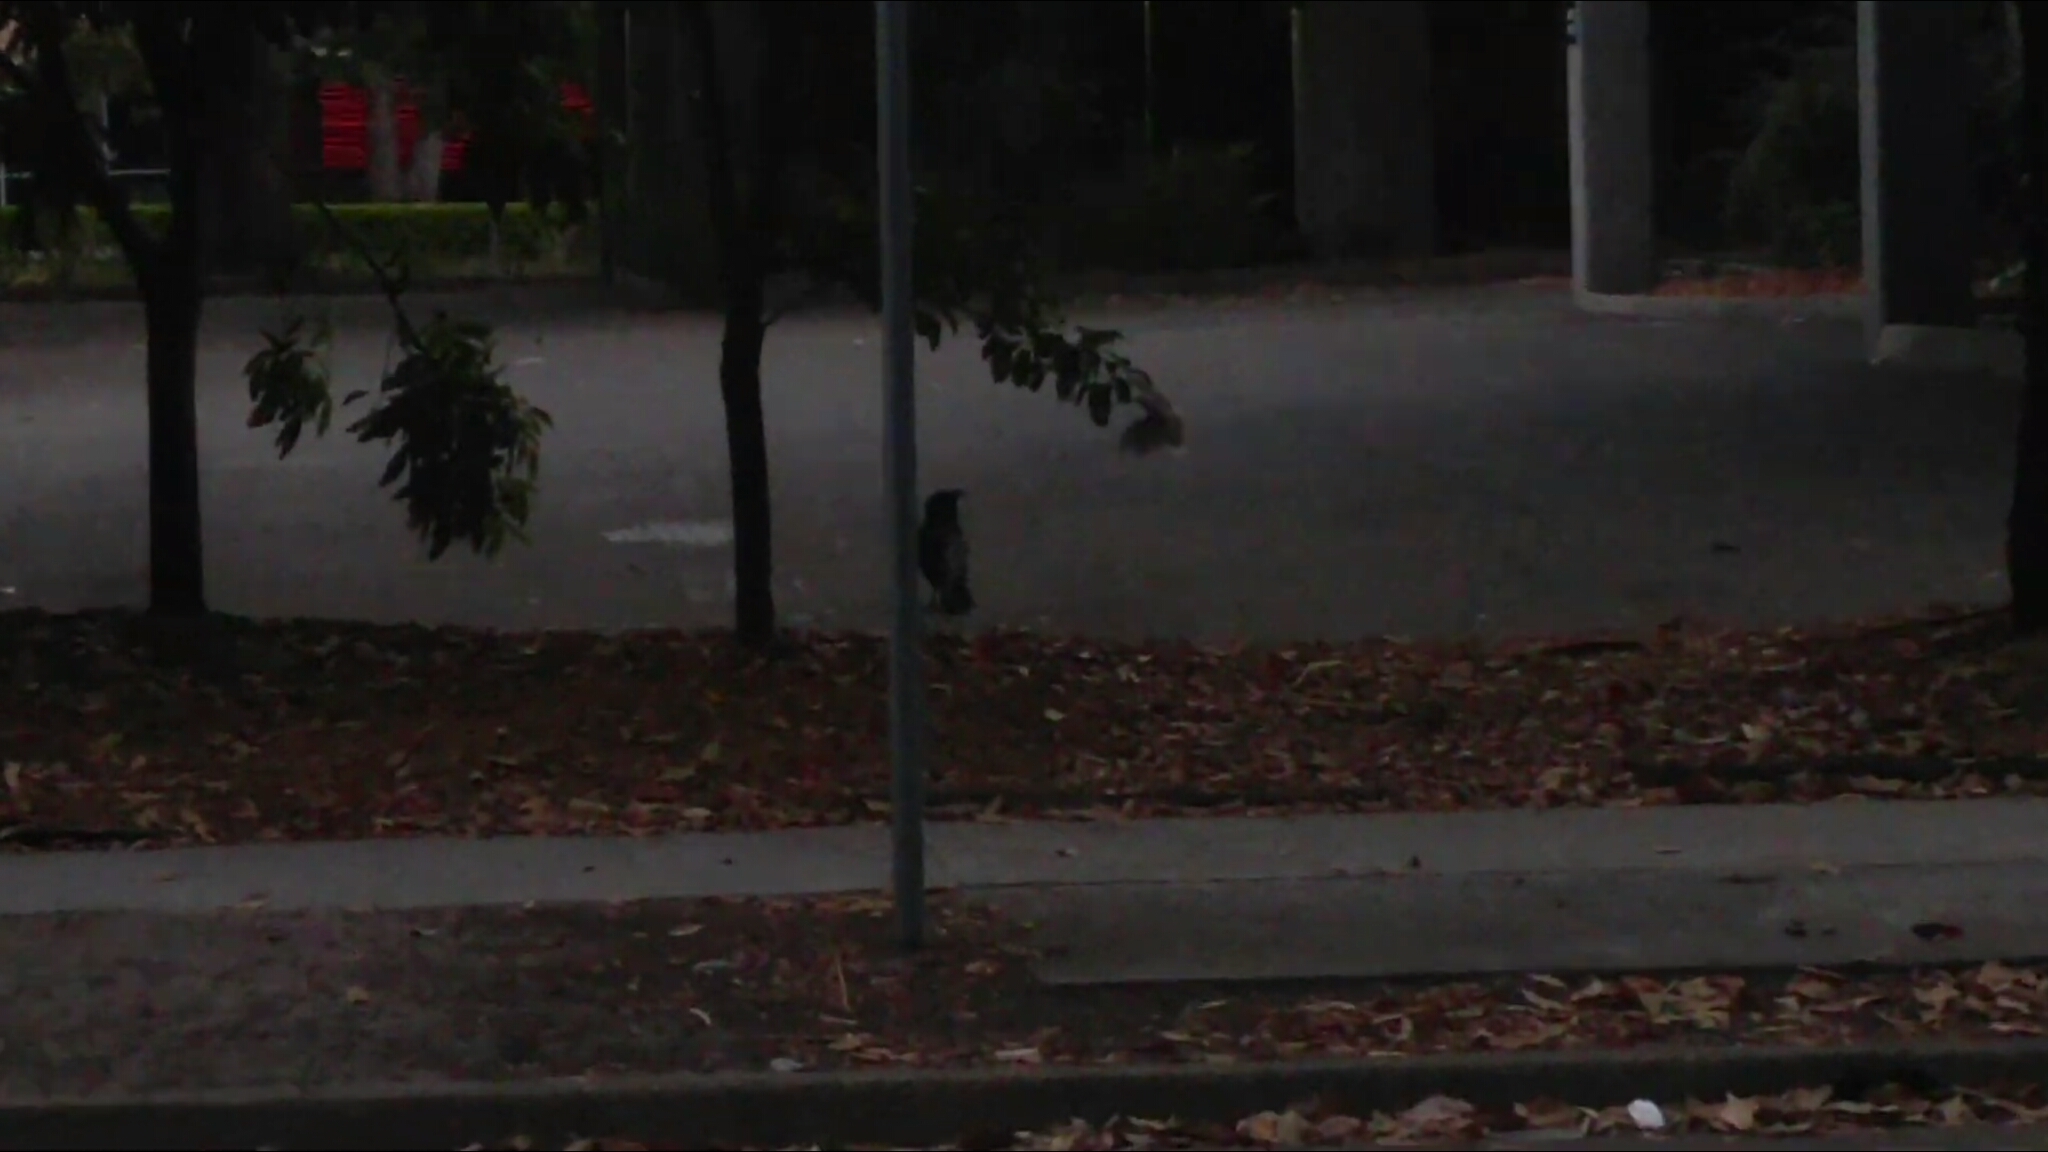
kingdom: Animalia
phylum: Chordata
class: Aves
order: Passeriformes
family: Meliphagidae
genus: Manorina
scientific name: Manorina melanocephala
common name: Noisy miner
